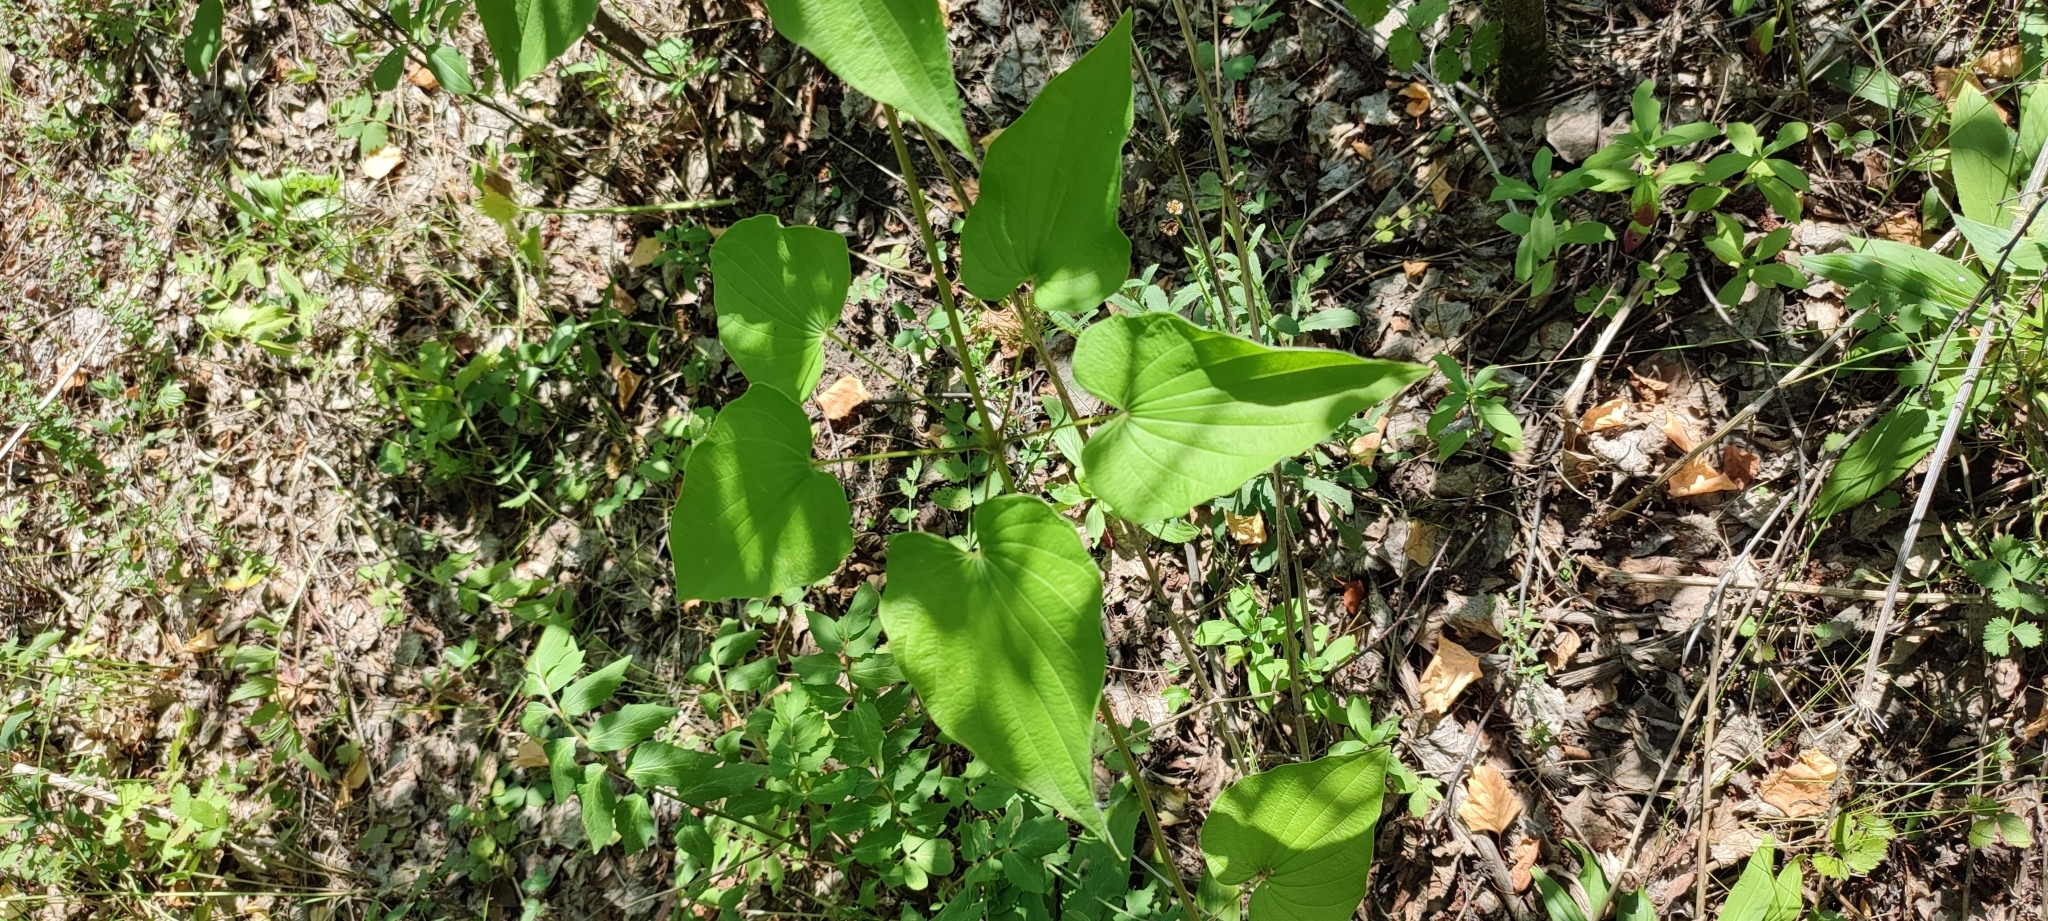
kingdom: Plantae
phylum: Tracheophyta
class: Liliopsida
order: Dioscoreales
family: Dioscoreaceae
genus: Dioscorea
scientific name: Dioscorea caucasica
